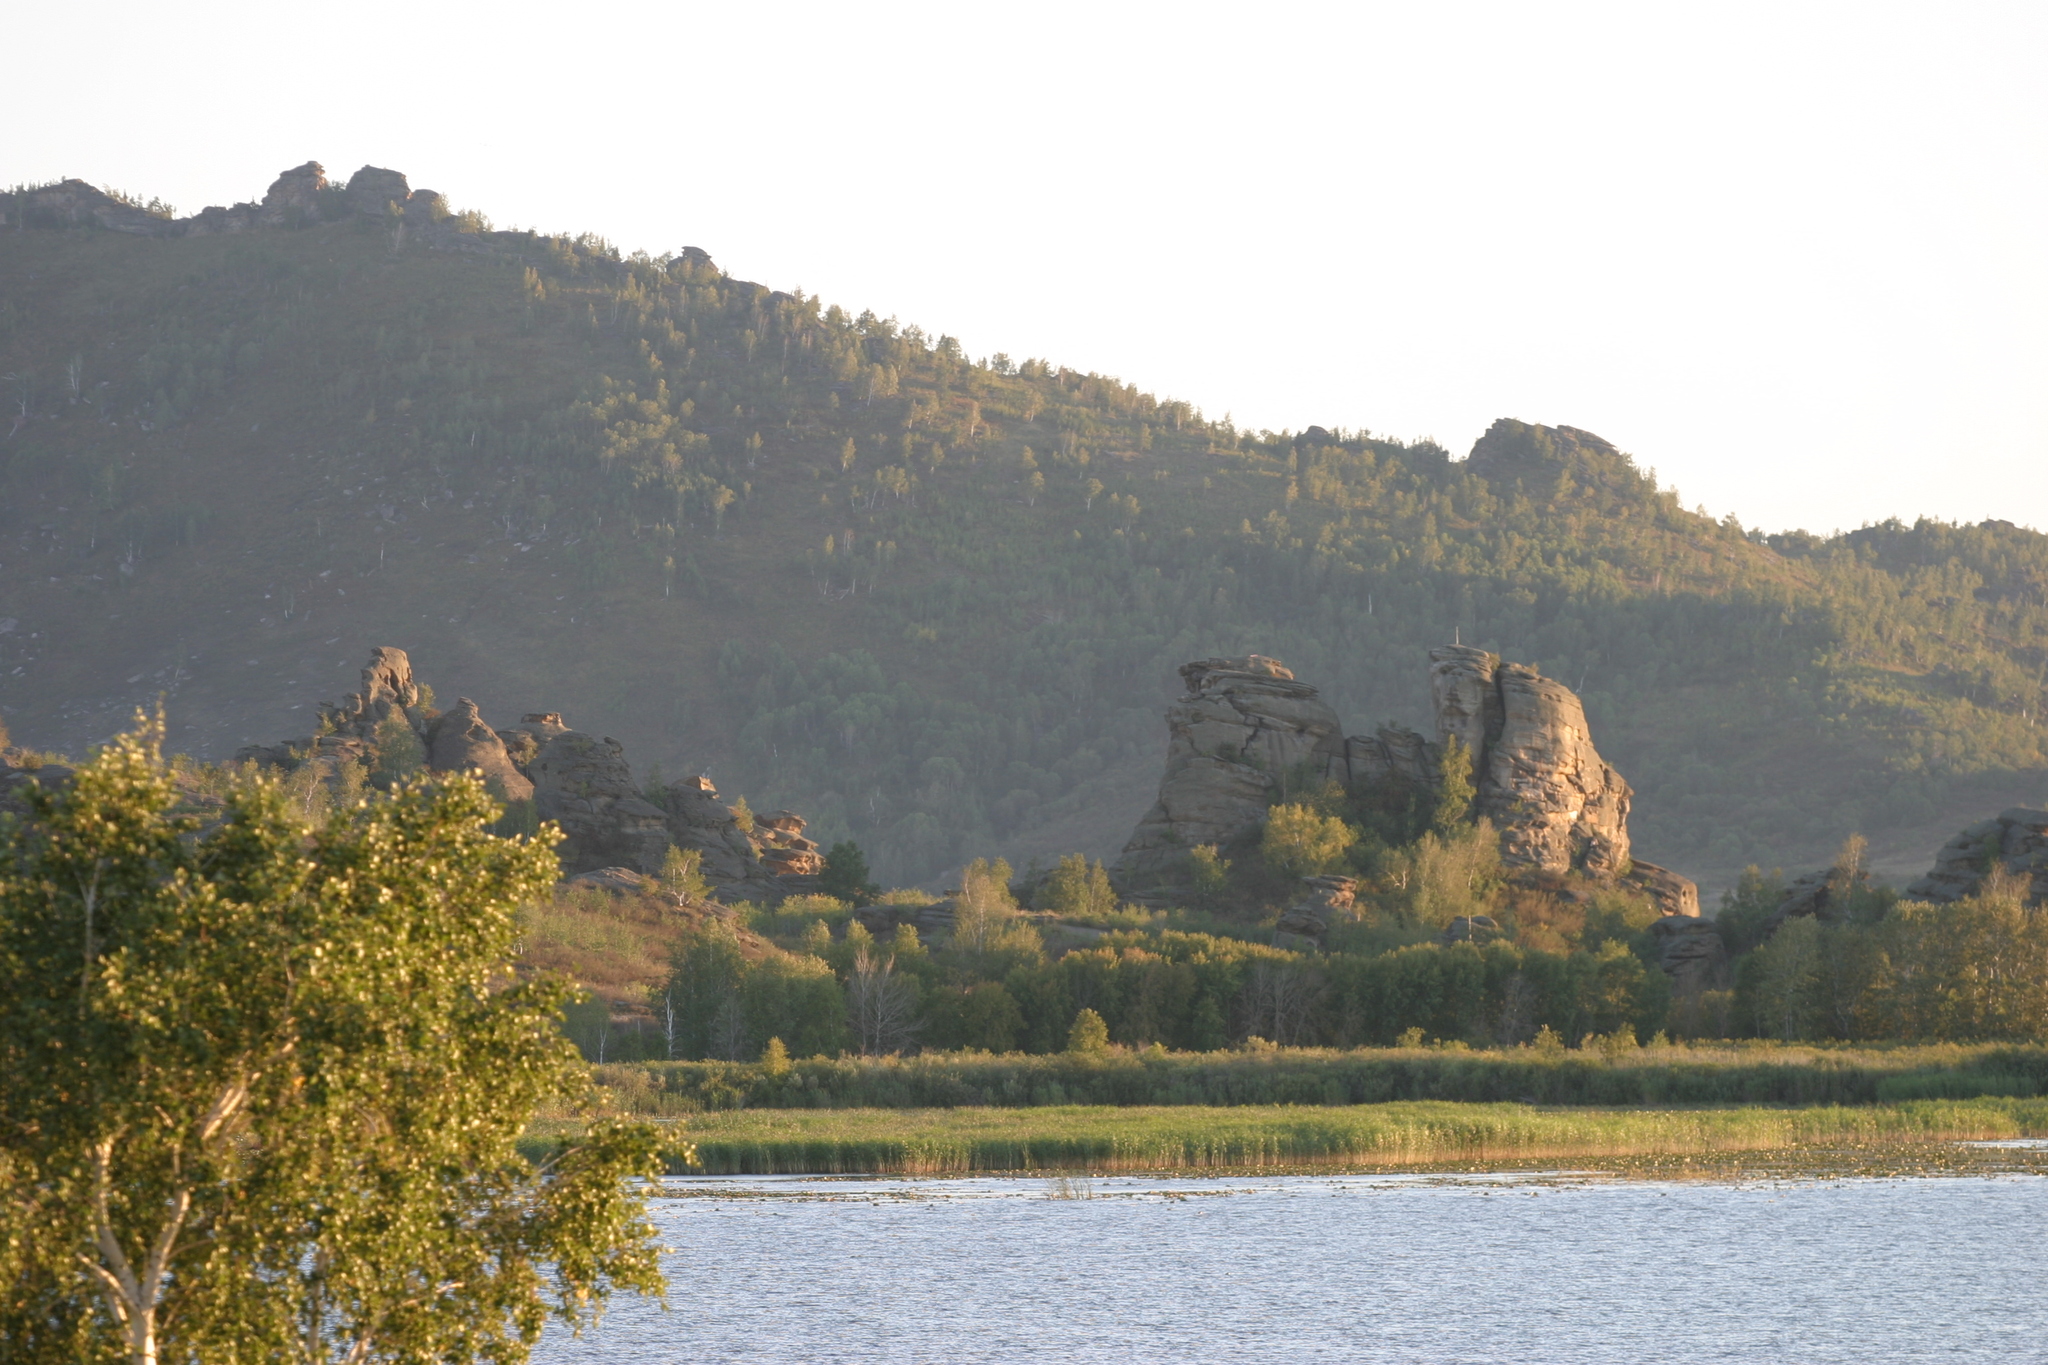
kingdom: Plantae
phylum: Tracheophyta
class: Magnoliopsida
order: Fagales
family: Betulaceae
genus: Betula
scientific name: Betula pendula
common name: Silver birch
